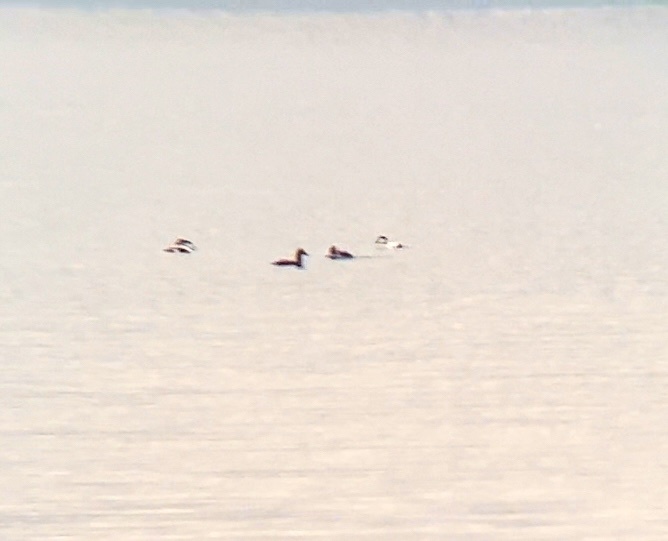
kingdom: Animalia
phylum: Chordata
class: Aves
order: Anseriformes
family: Anatidae
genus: Somateria
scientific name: Somateria mollissima
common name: Common eider
